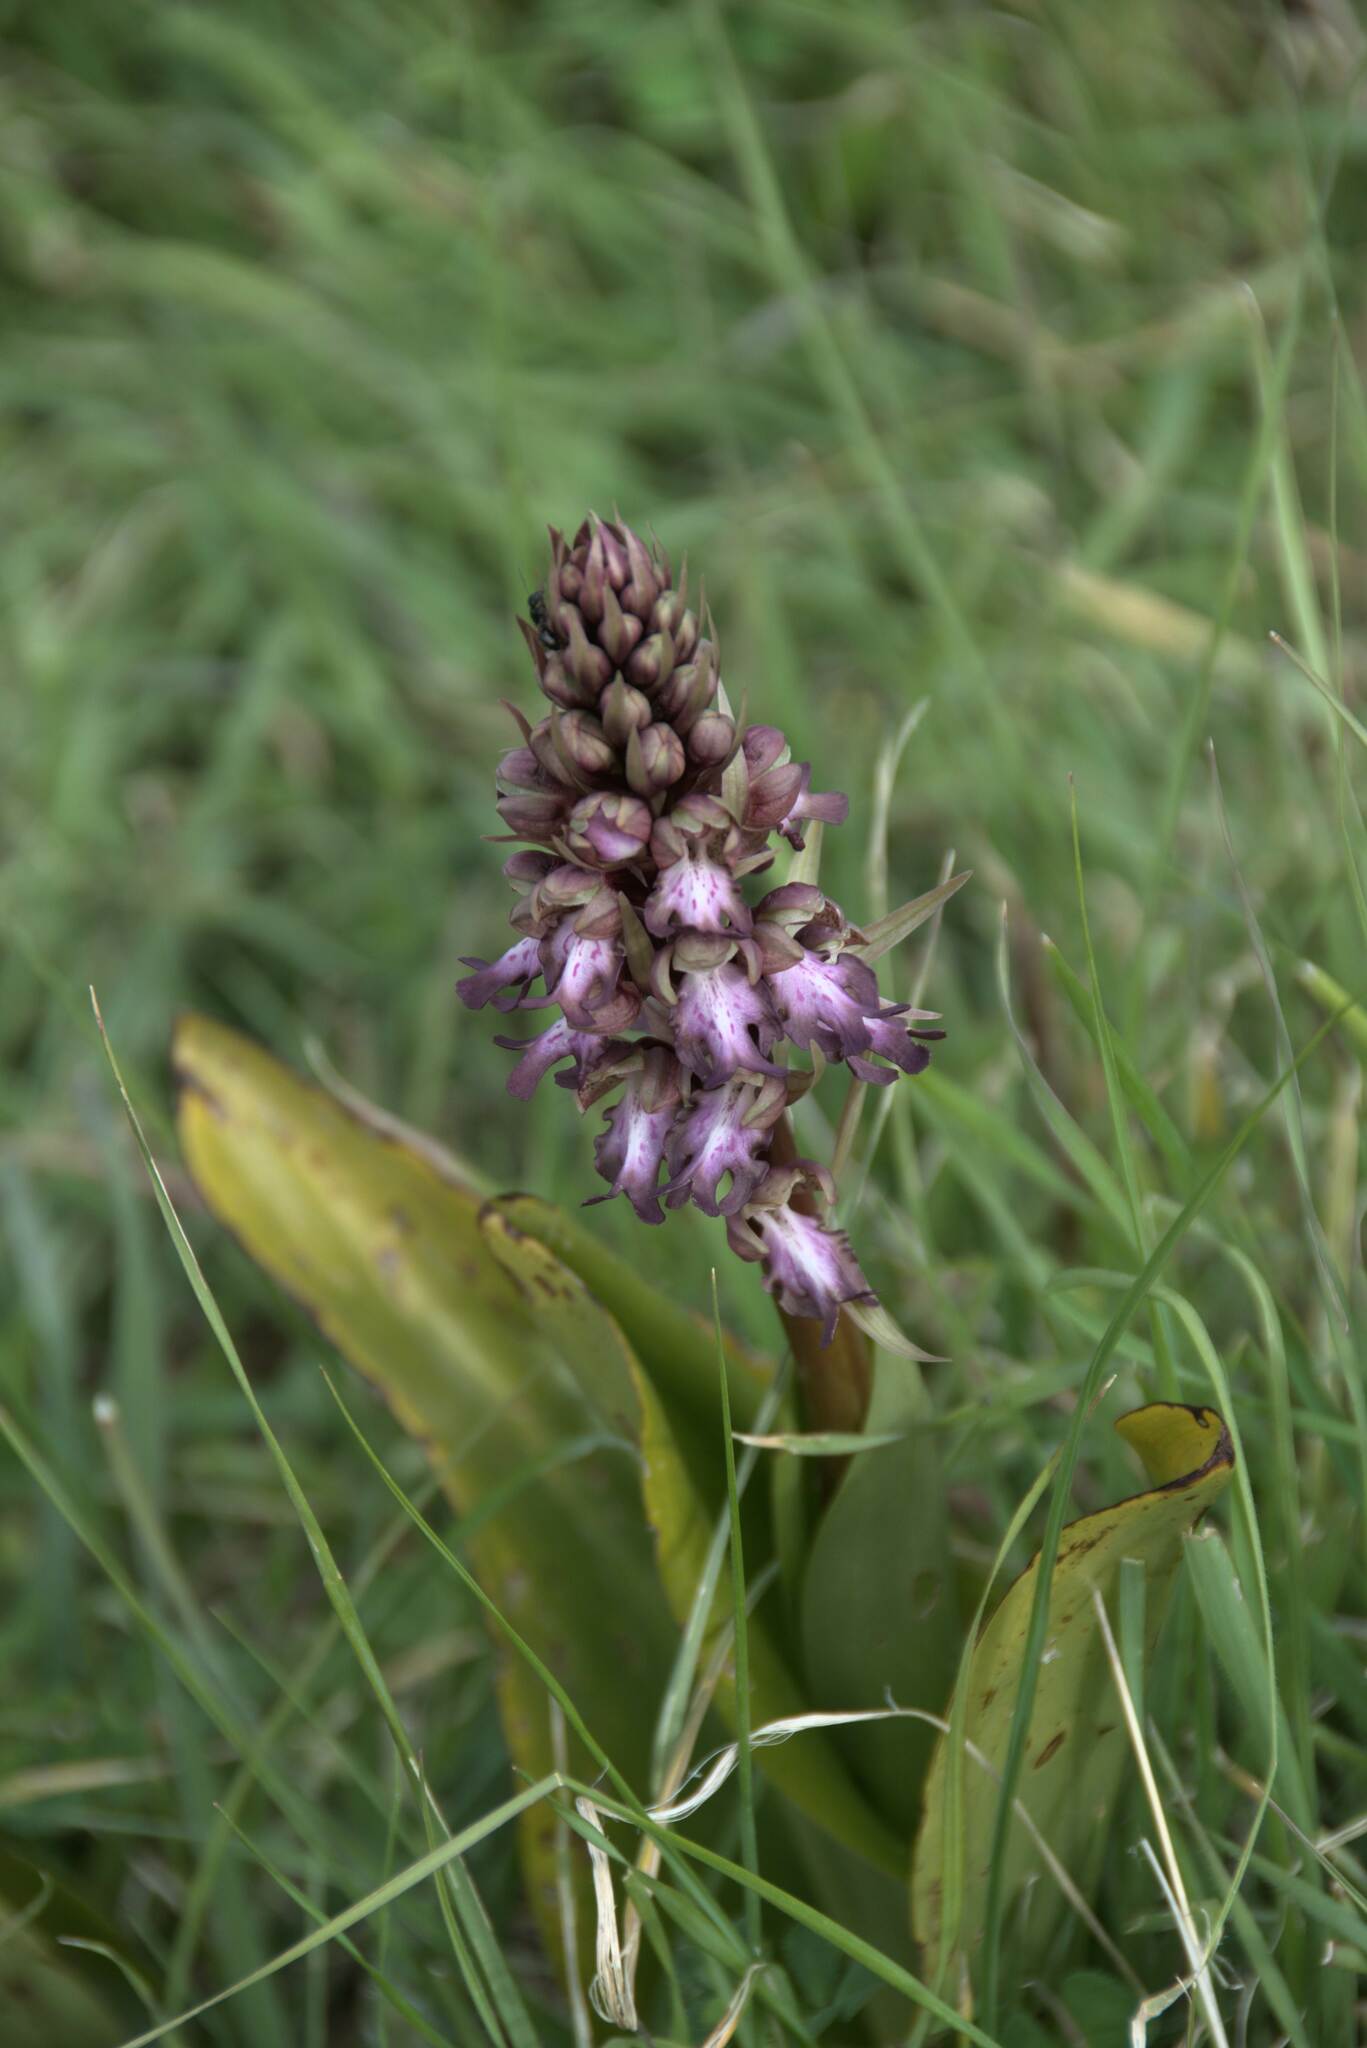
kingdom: Plantae
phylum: Tracheophyta
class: Liliopsida
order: Asparagales
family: Orchidaceae
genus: Himantoglossum
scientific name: Himantoglossum robertianum
